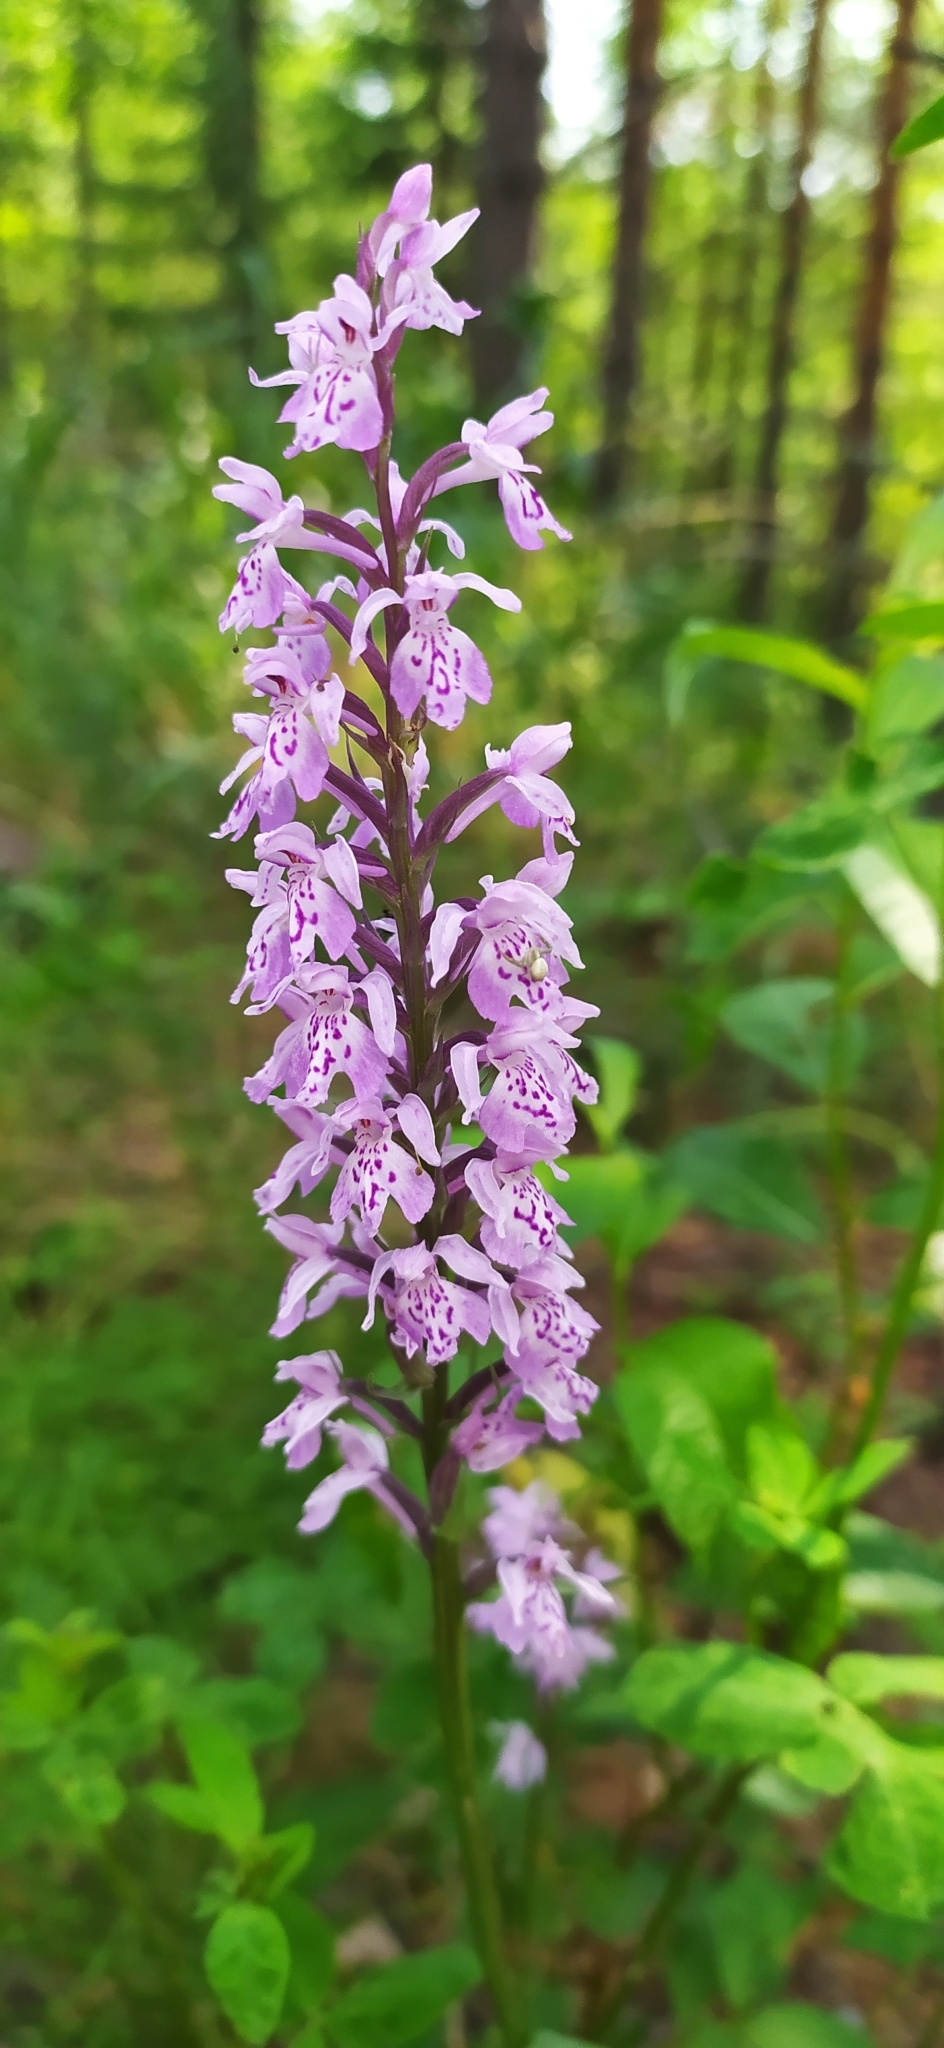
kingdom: Plantae
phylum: Tracheophyta
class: Liliopsida
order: Asparagales
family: Orchidaceae
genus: Dactylorhiza
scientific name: Dactylorhiza maculata
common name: Heath spotted-orchid
